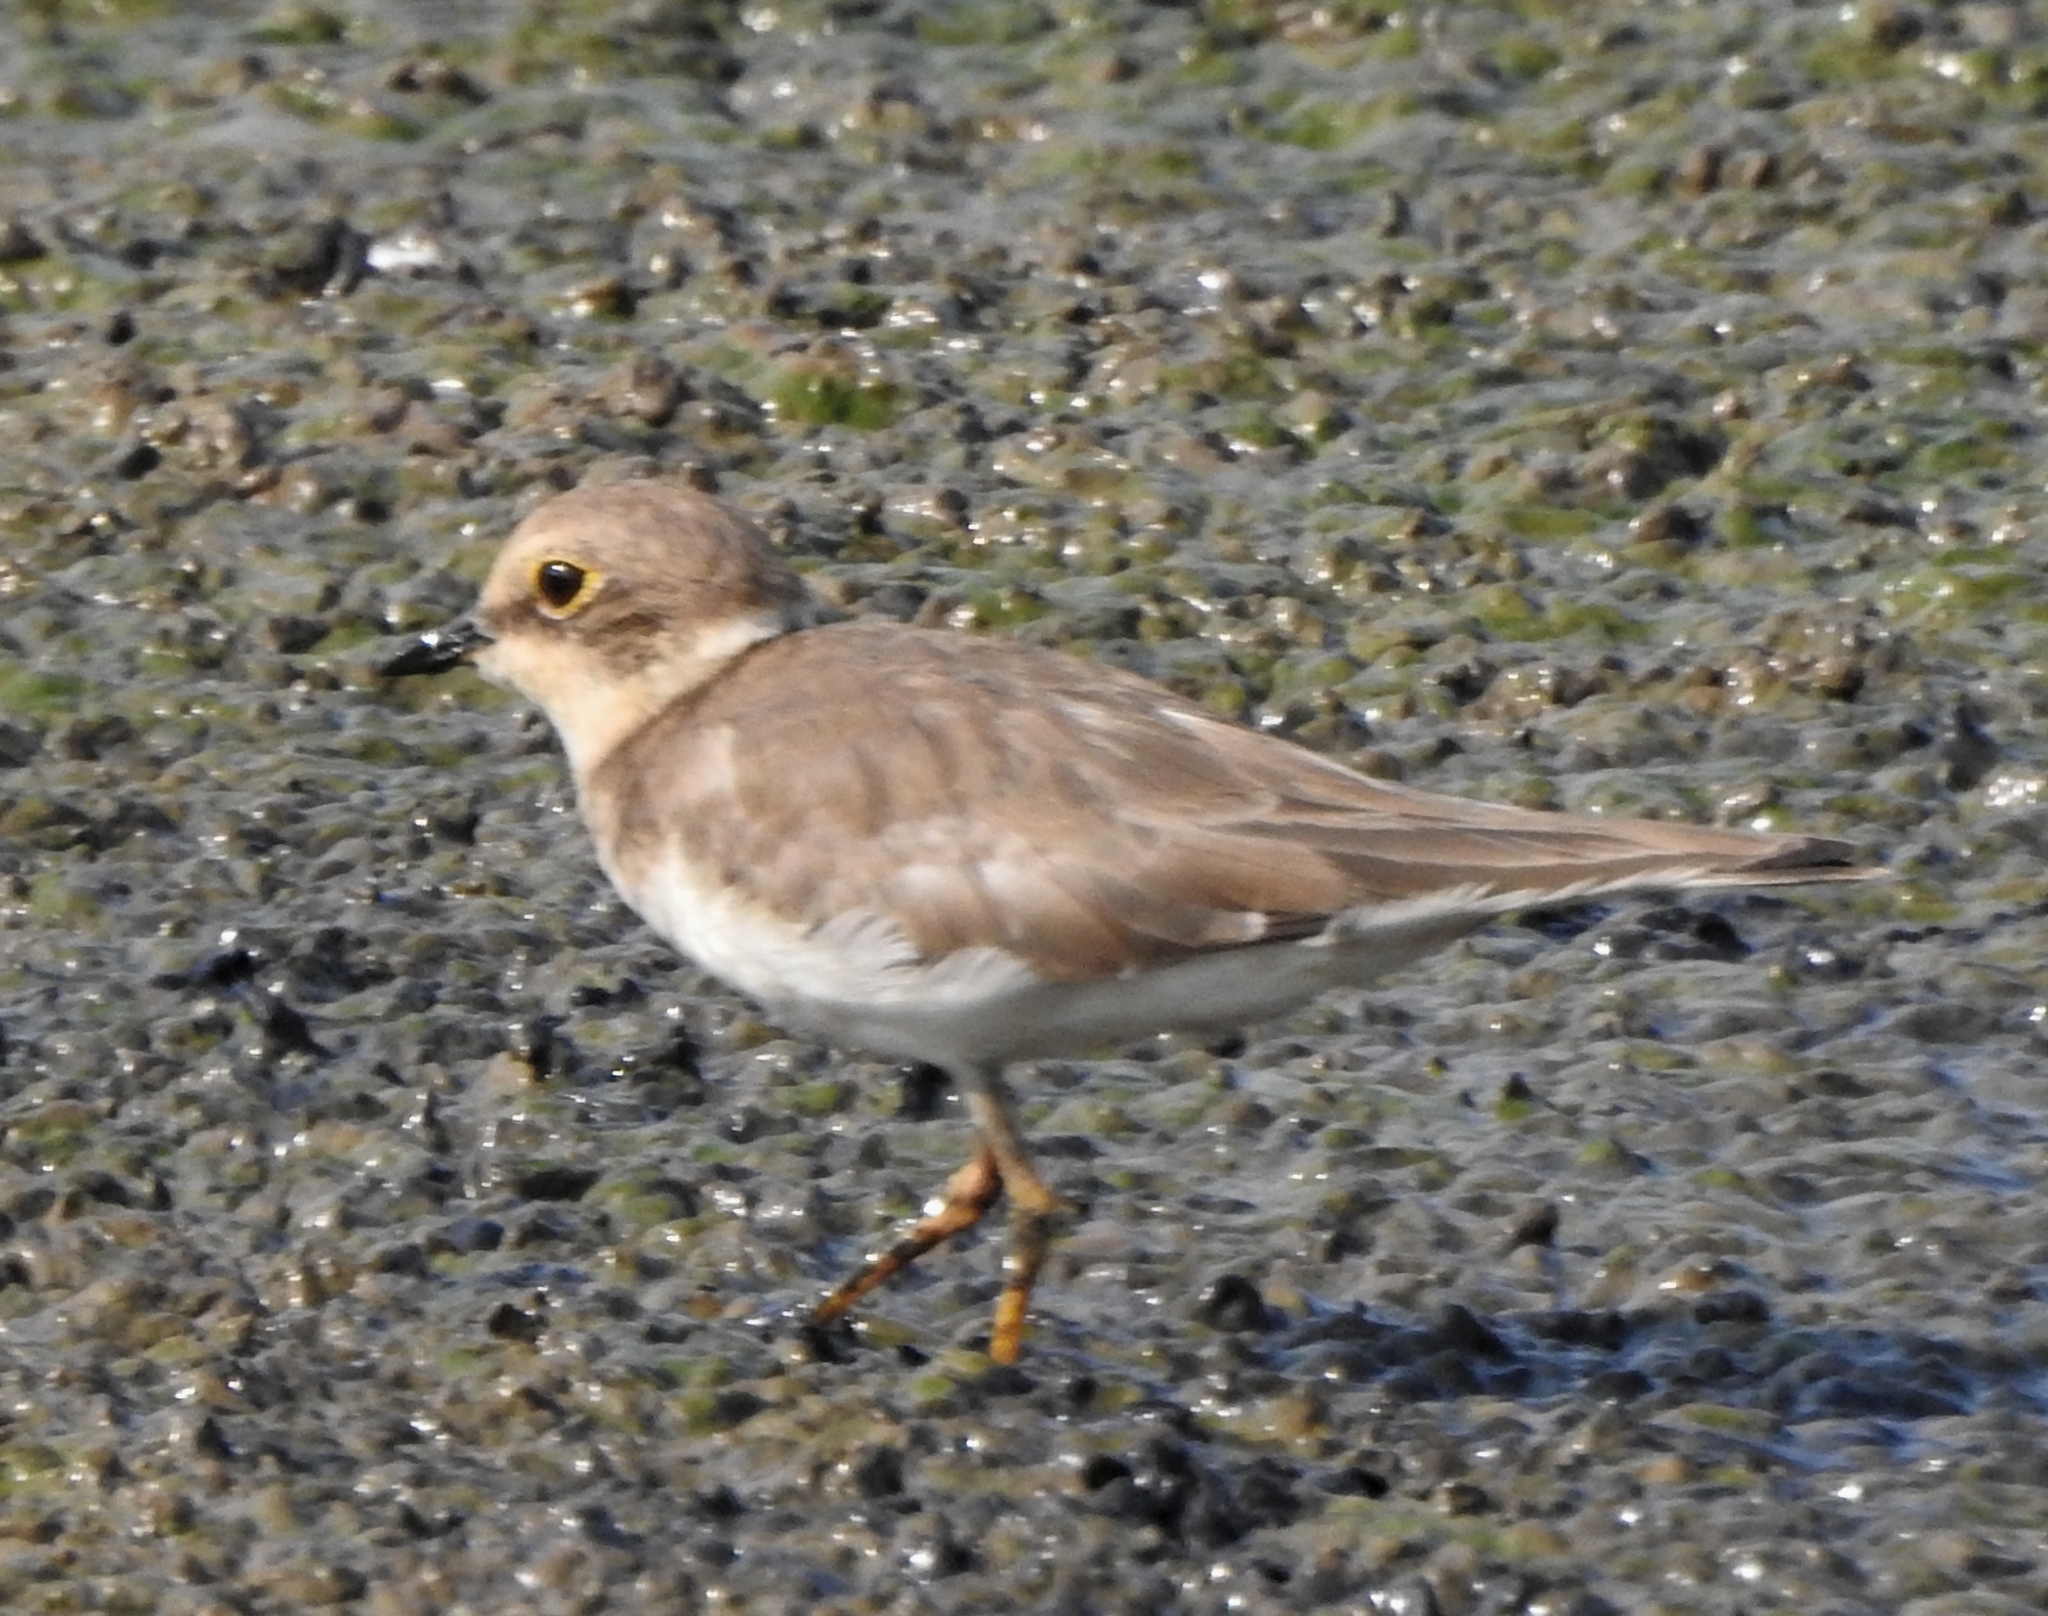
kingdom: Animalia
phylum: Chordata
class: Aves
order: Charadriiformes
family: Charadriidae
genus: Charadrius
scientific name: Charadrius dubius
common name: Little ringed plover
